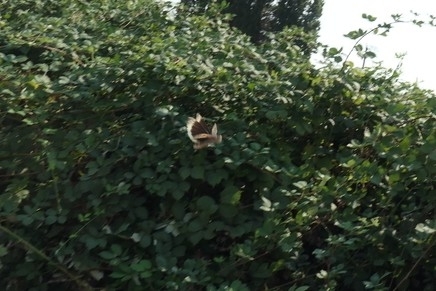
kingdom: Animalia
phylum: Arthropoda
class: Insecta
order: Orthoptera
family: Acrididae
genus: Dissosteira
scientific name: Dissosteira carolina
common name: Carolina grasshopper
